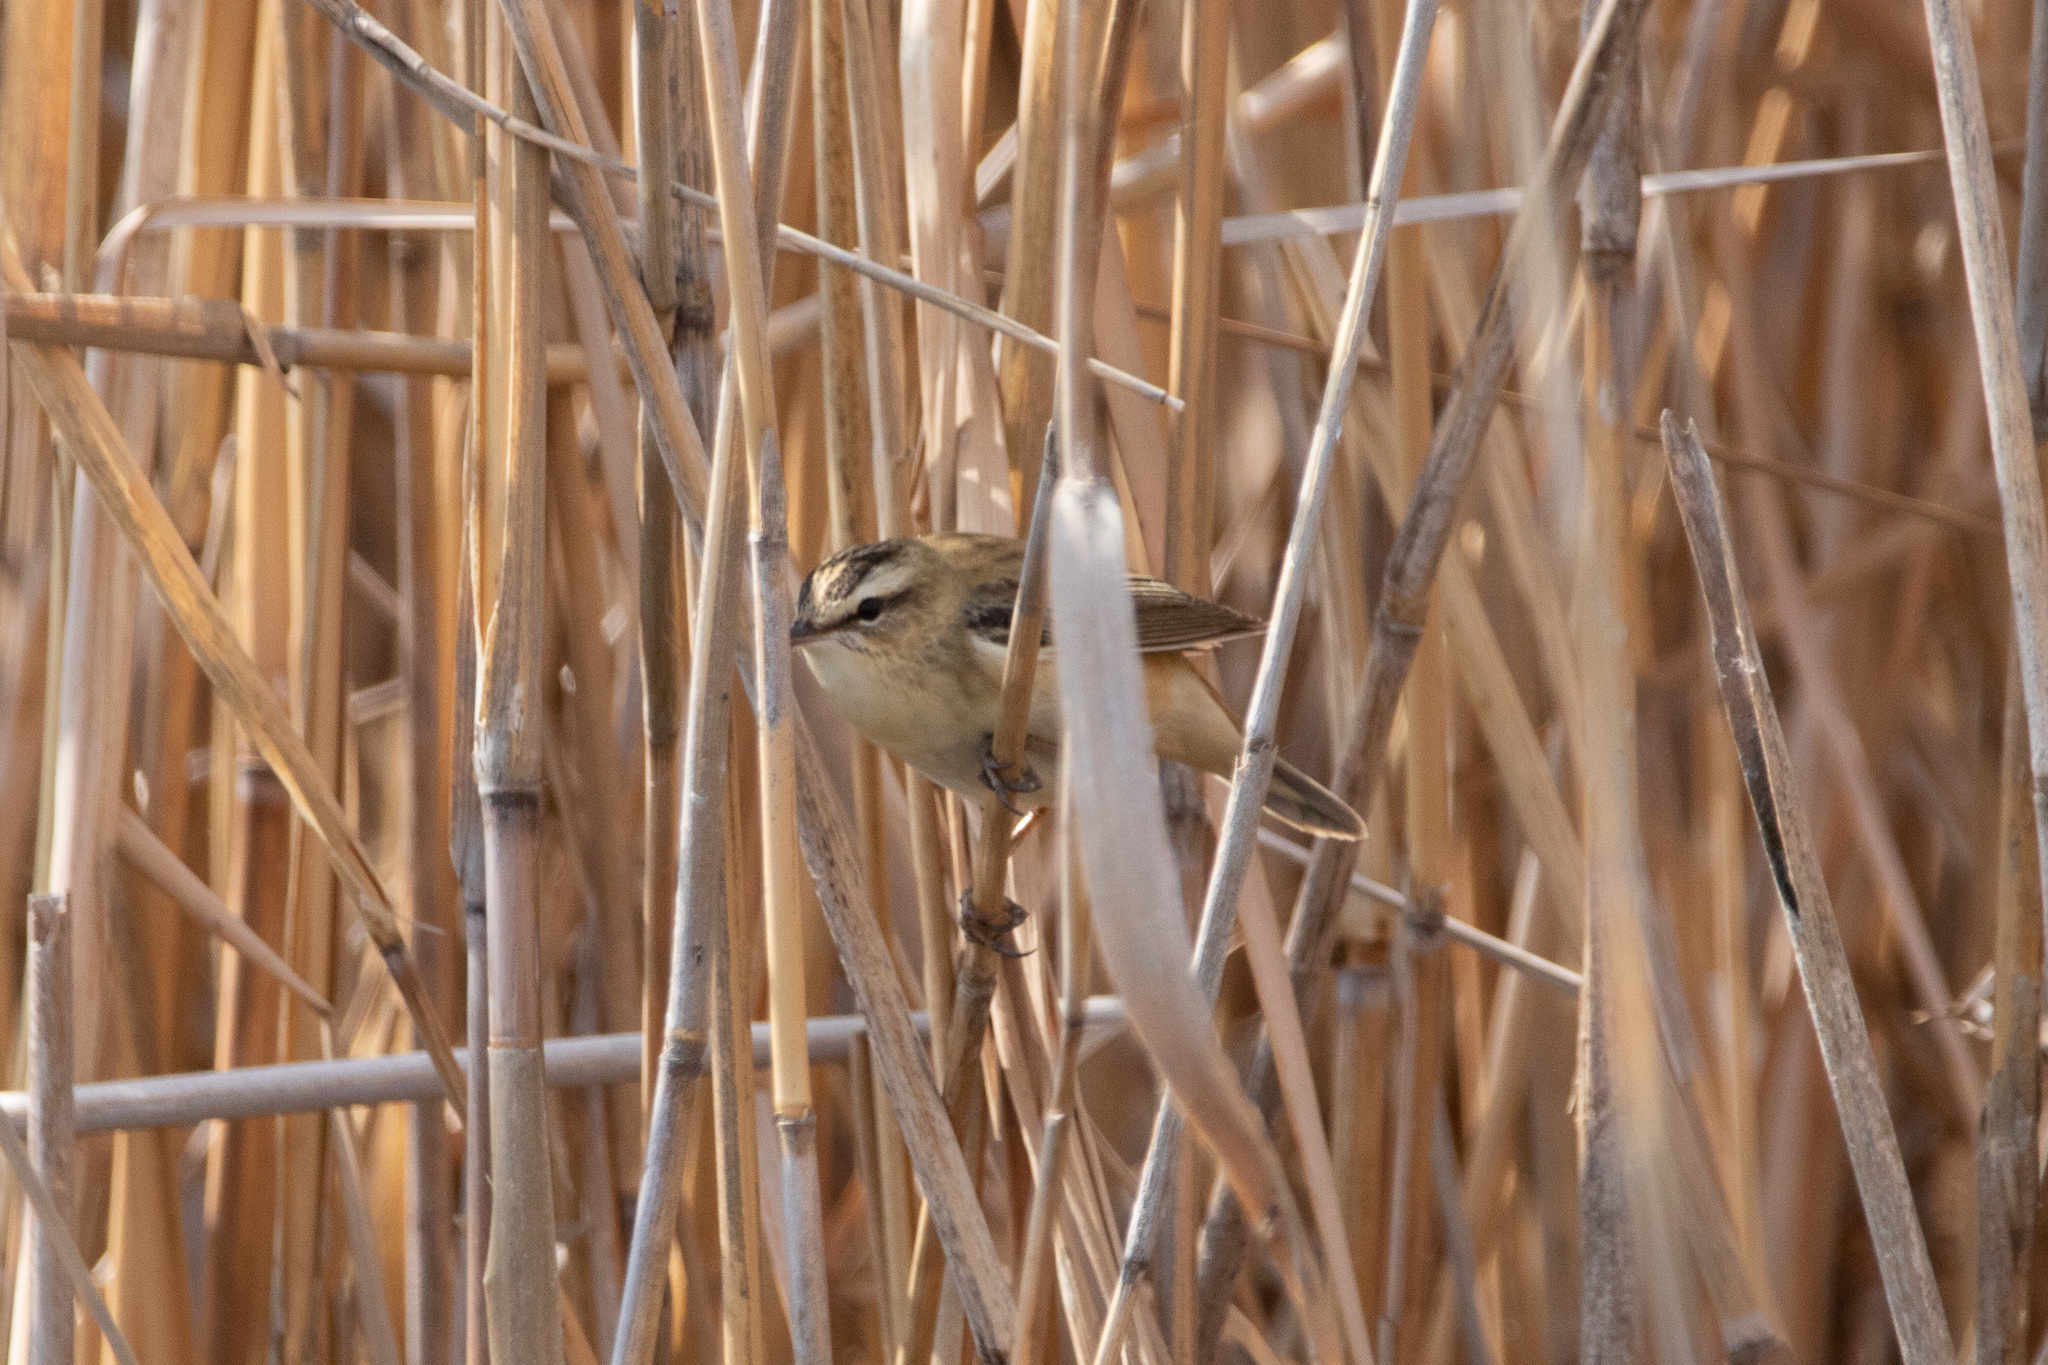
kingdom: Animalia
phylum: Chordata
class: Aves
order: Passeriformes
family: Acrocephalidae
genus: Acrocephalus
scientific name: Acrocephalus schoenobaenus
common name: Sedge warbler
